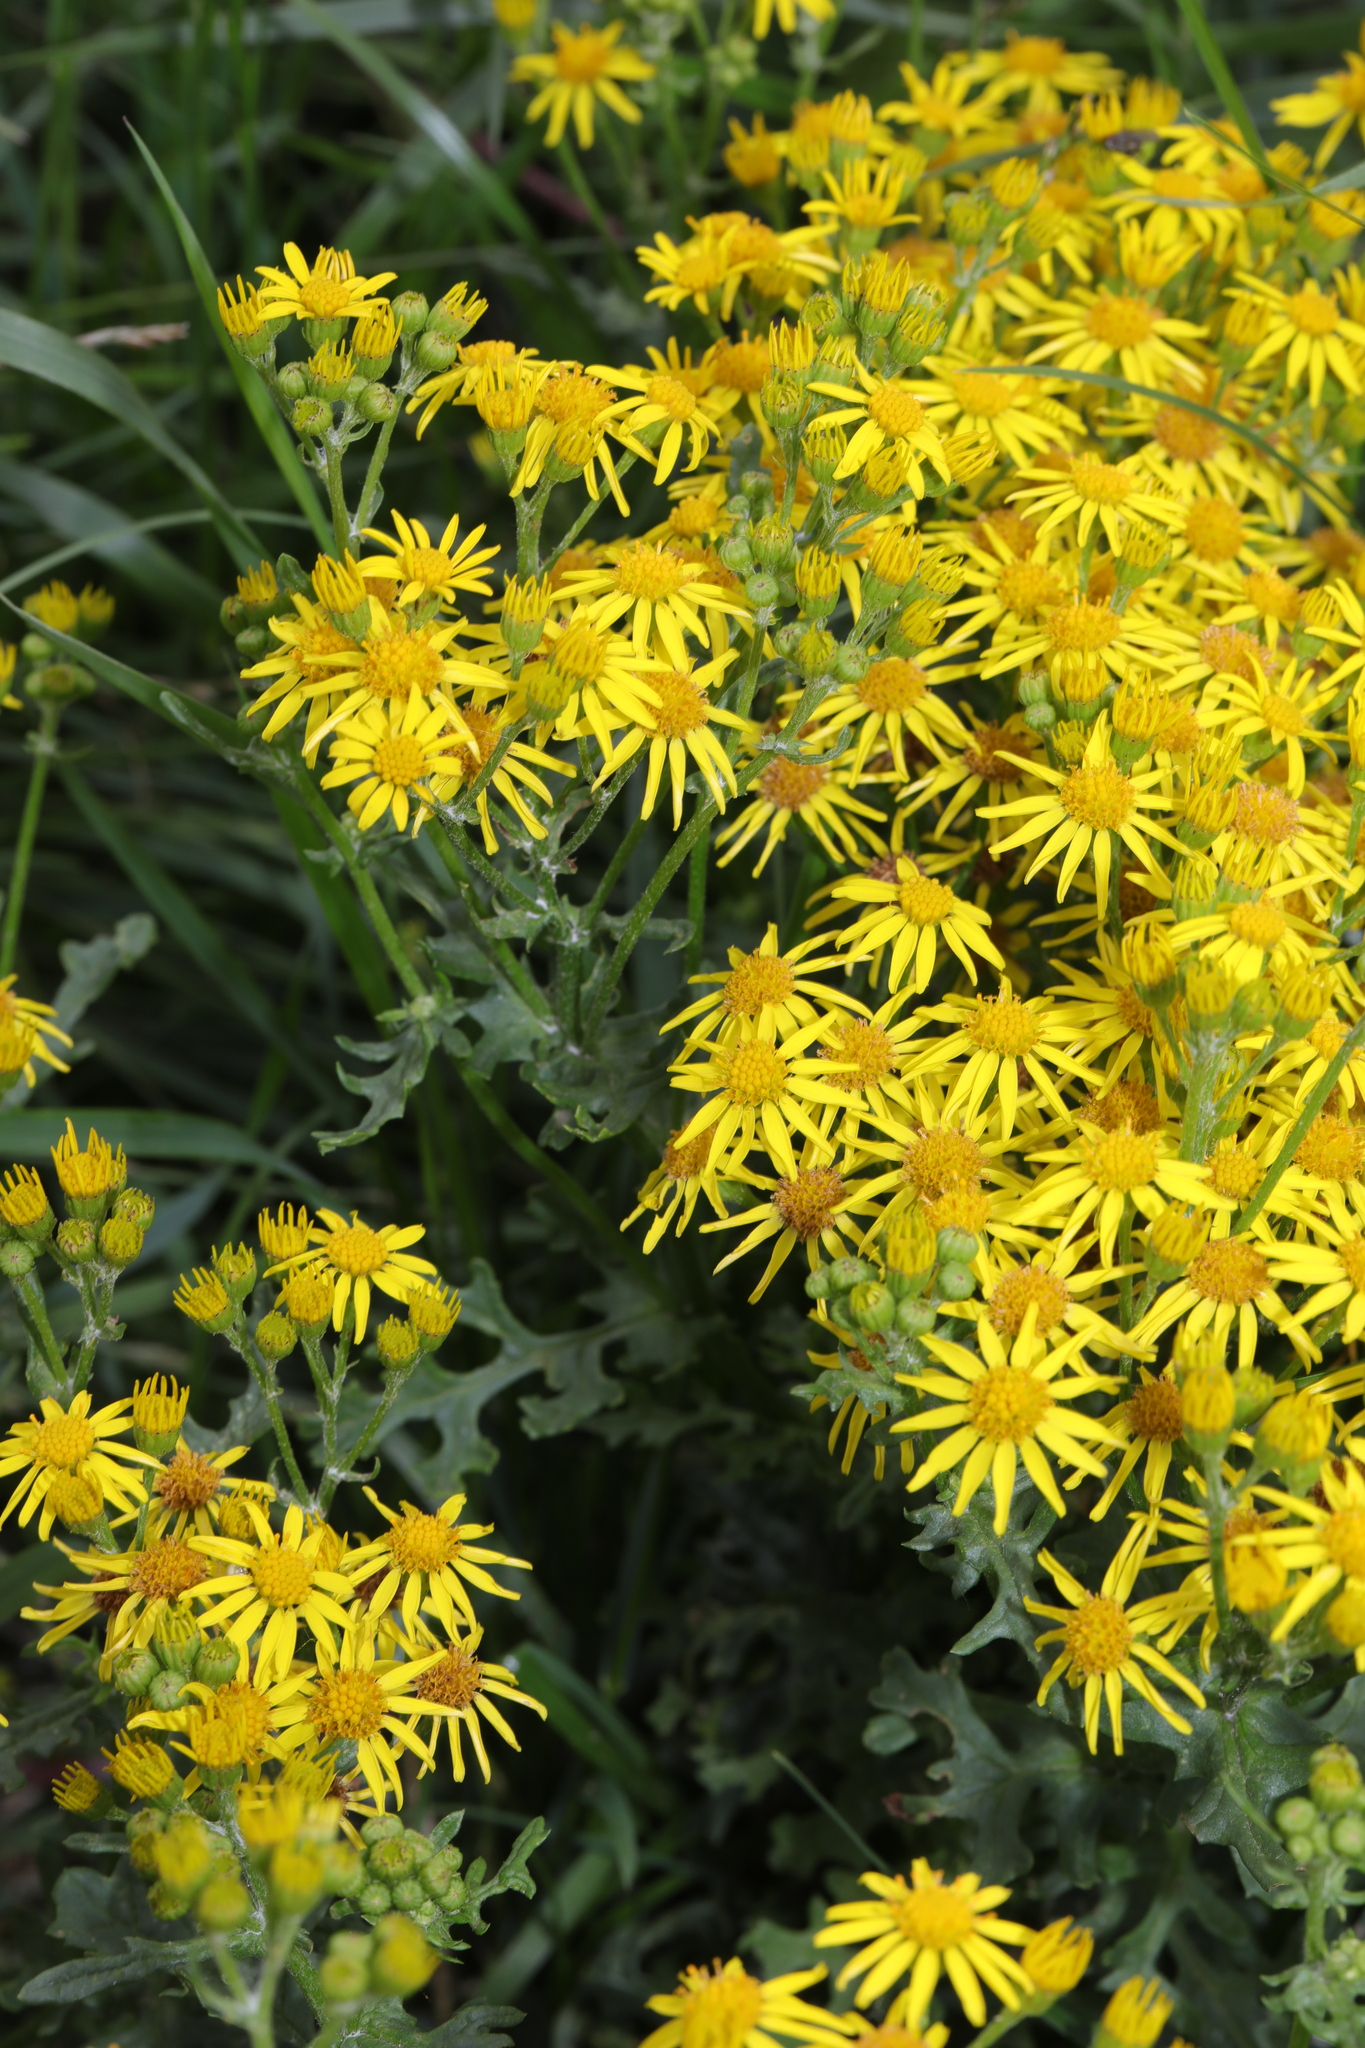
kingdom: Plantae
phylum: Tracheophyta
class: Magnoliopsida
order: Asterales
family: Asteraceae
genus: Jacobaea
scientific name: Jacobaea vulgaris
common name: Stinking willie
